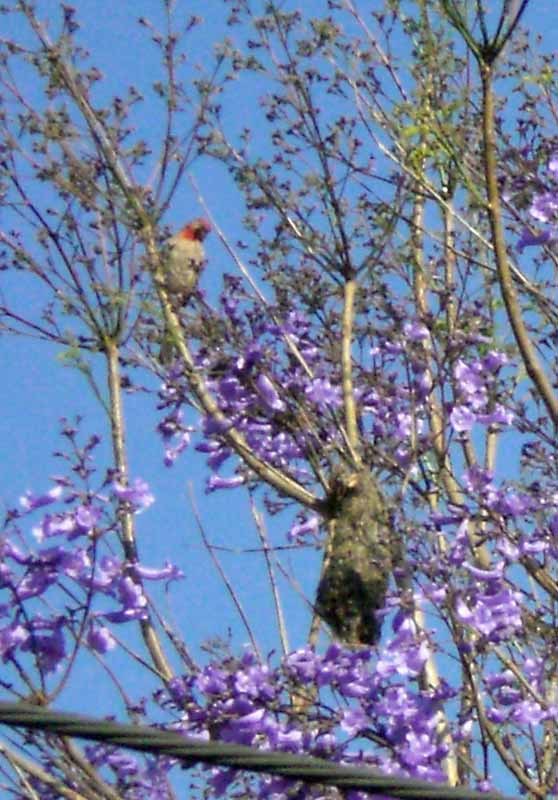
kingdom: Animalia
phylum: Chordata
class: Aves
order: Passeriformes
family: Fringillidae
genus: Haemorhous
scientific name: Haemorhous mexicanus
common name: House finch
